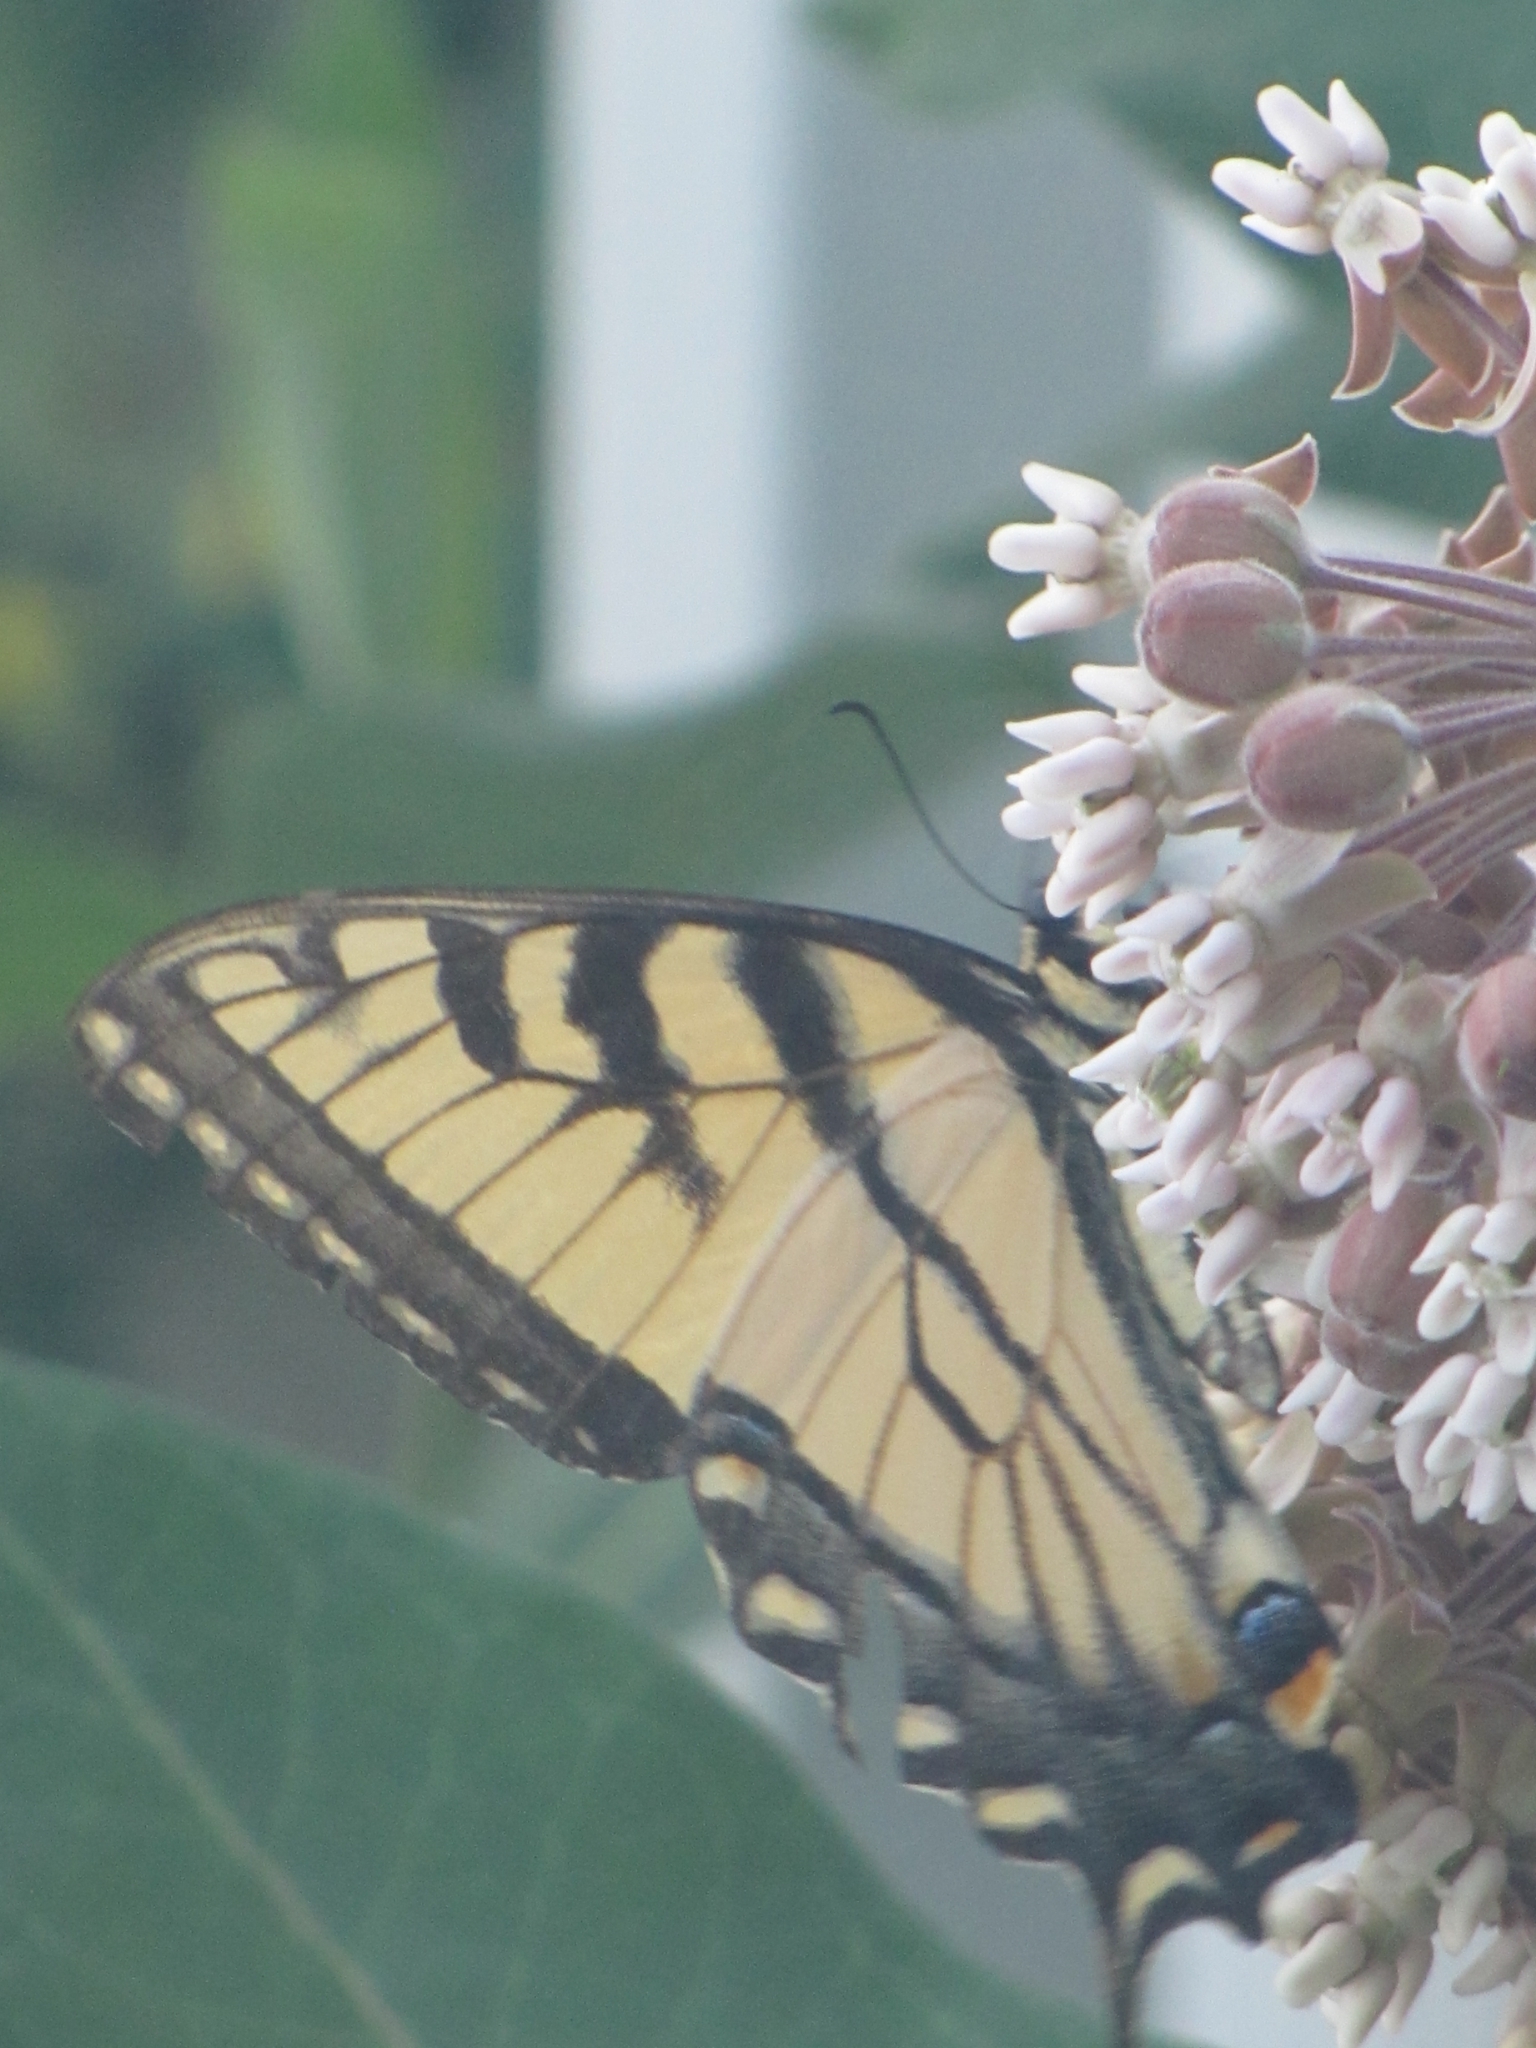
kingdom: Animalia
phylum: Arthropoda
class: Insecta
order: Lepidoptera
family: Papilionidae
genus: Papilio
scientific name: Papilio
